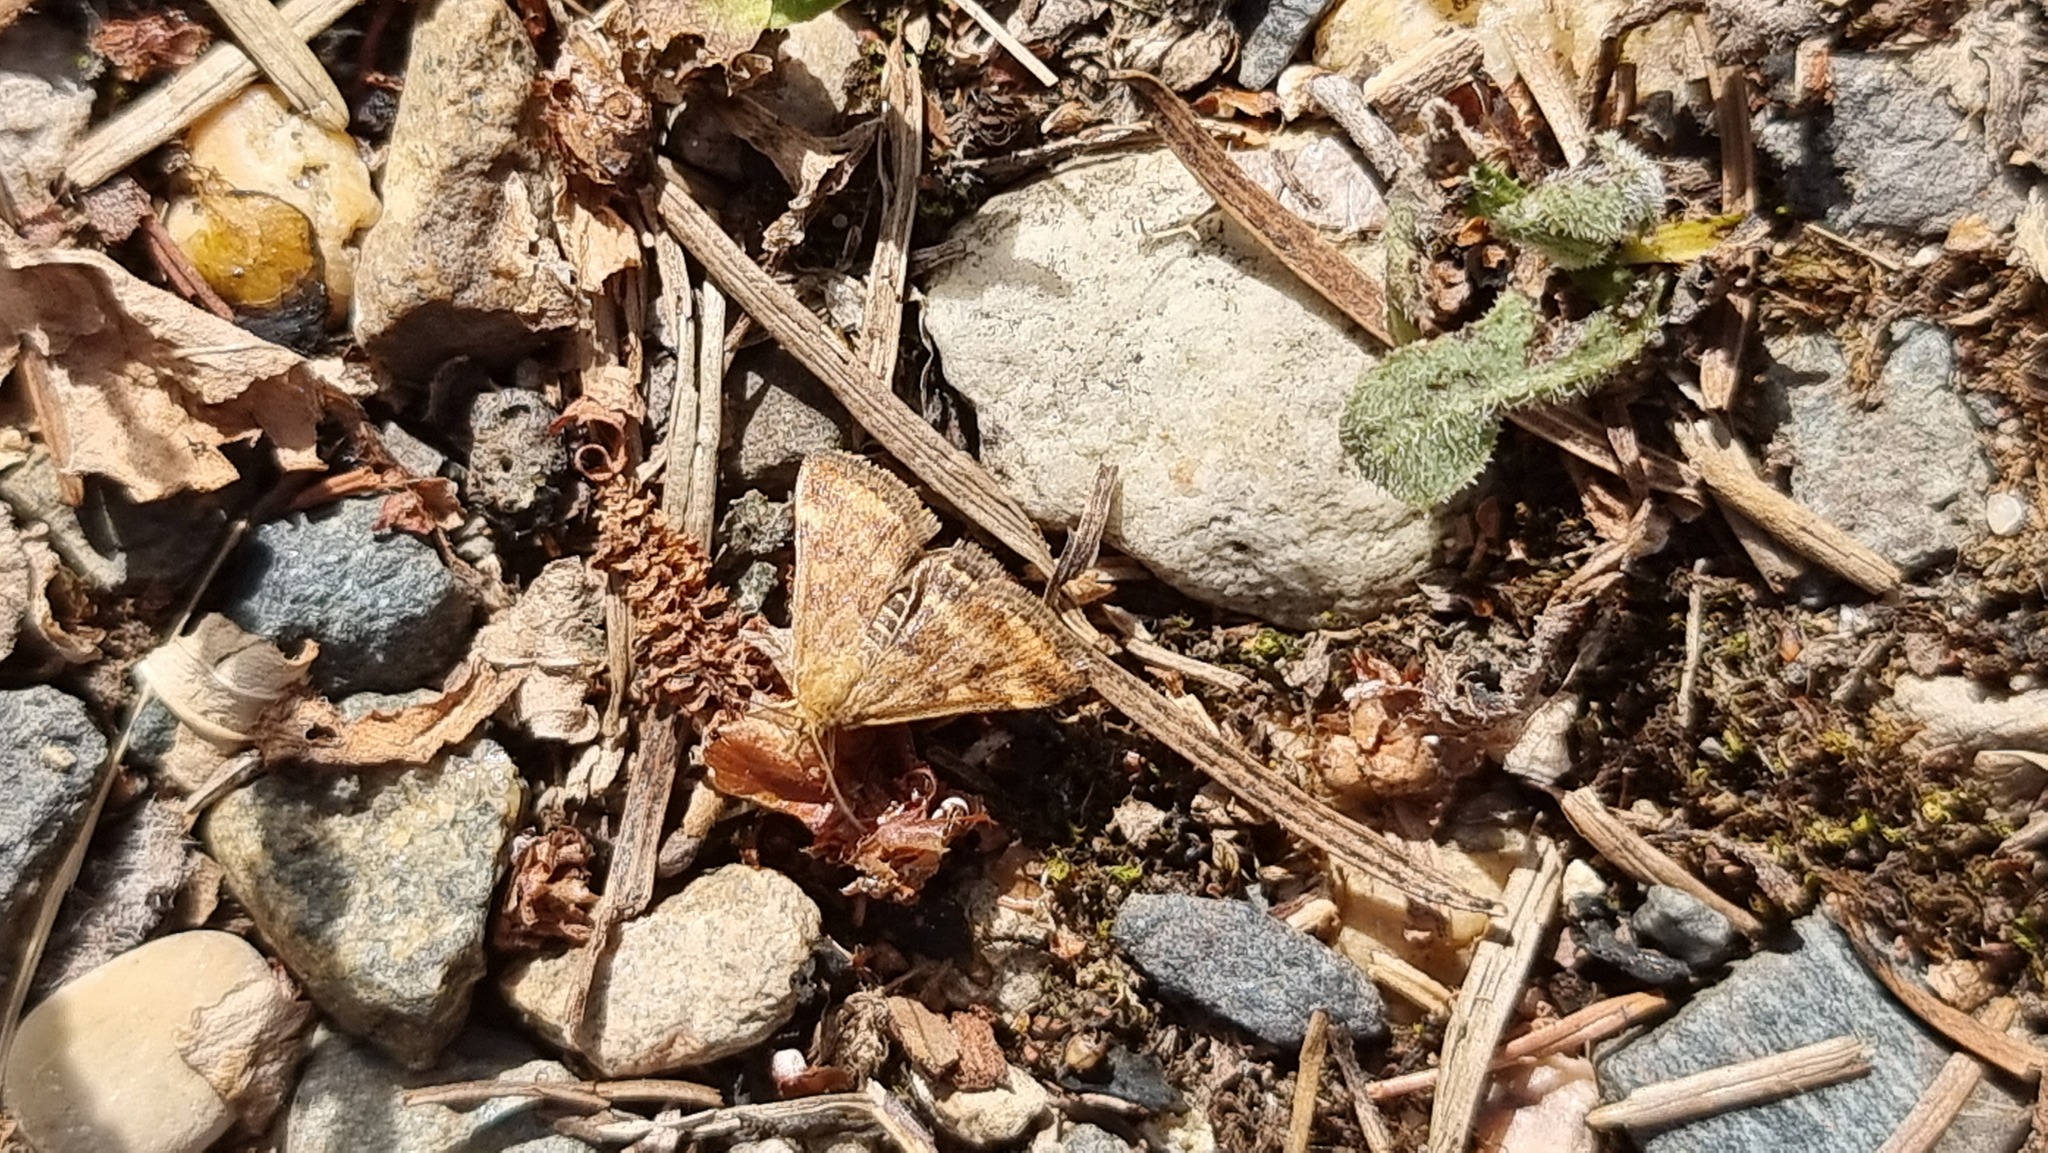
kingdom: Animalia
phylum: Arthropoda
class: Insecta
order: Lepidoptera
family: Crambidae
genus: Pyrausta
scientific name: Pyrausta despicata
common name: Straw-barred pearl
